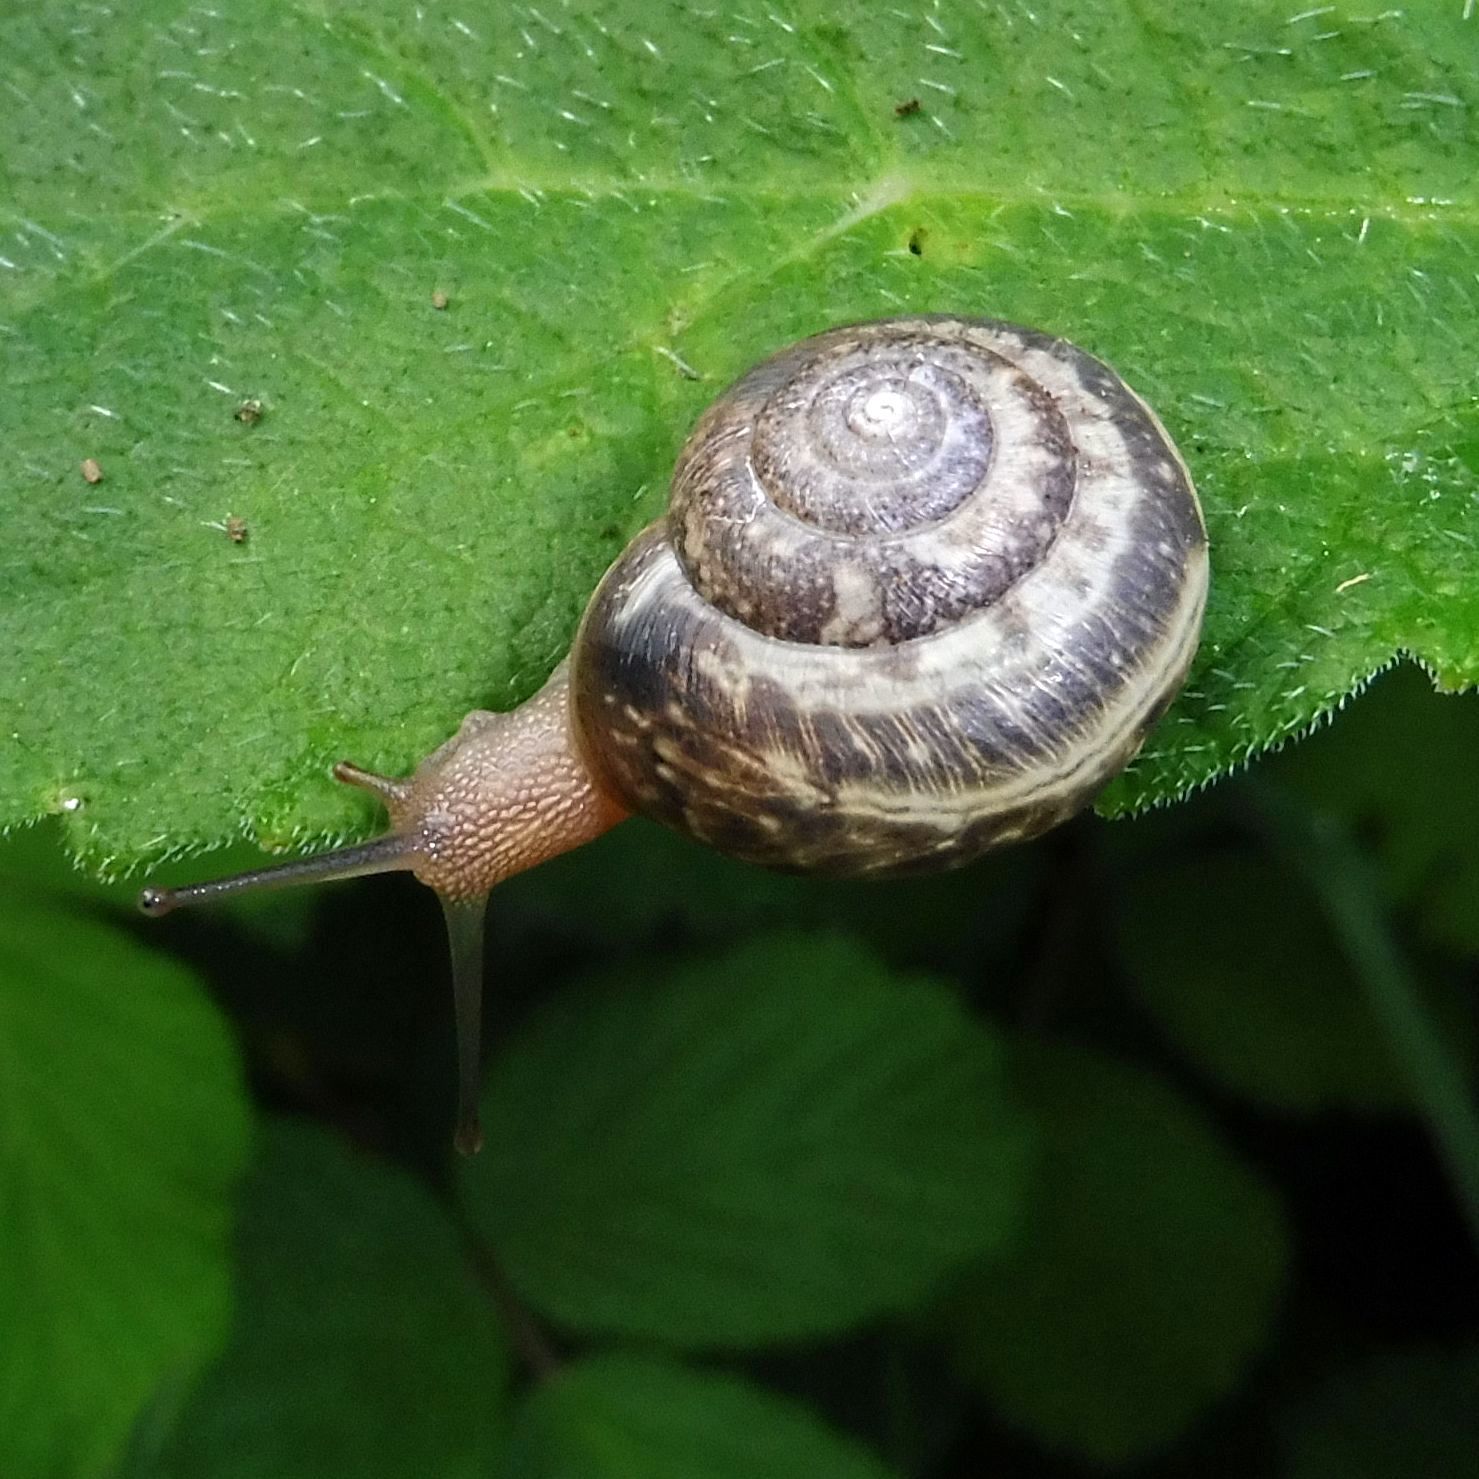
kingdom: Animalia
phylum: Mollusca
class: Gastropoda
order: Stylommatophora
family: Hygromiidae
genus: Monacha
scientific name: Monacha cantiana
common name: Kentish snail
